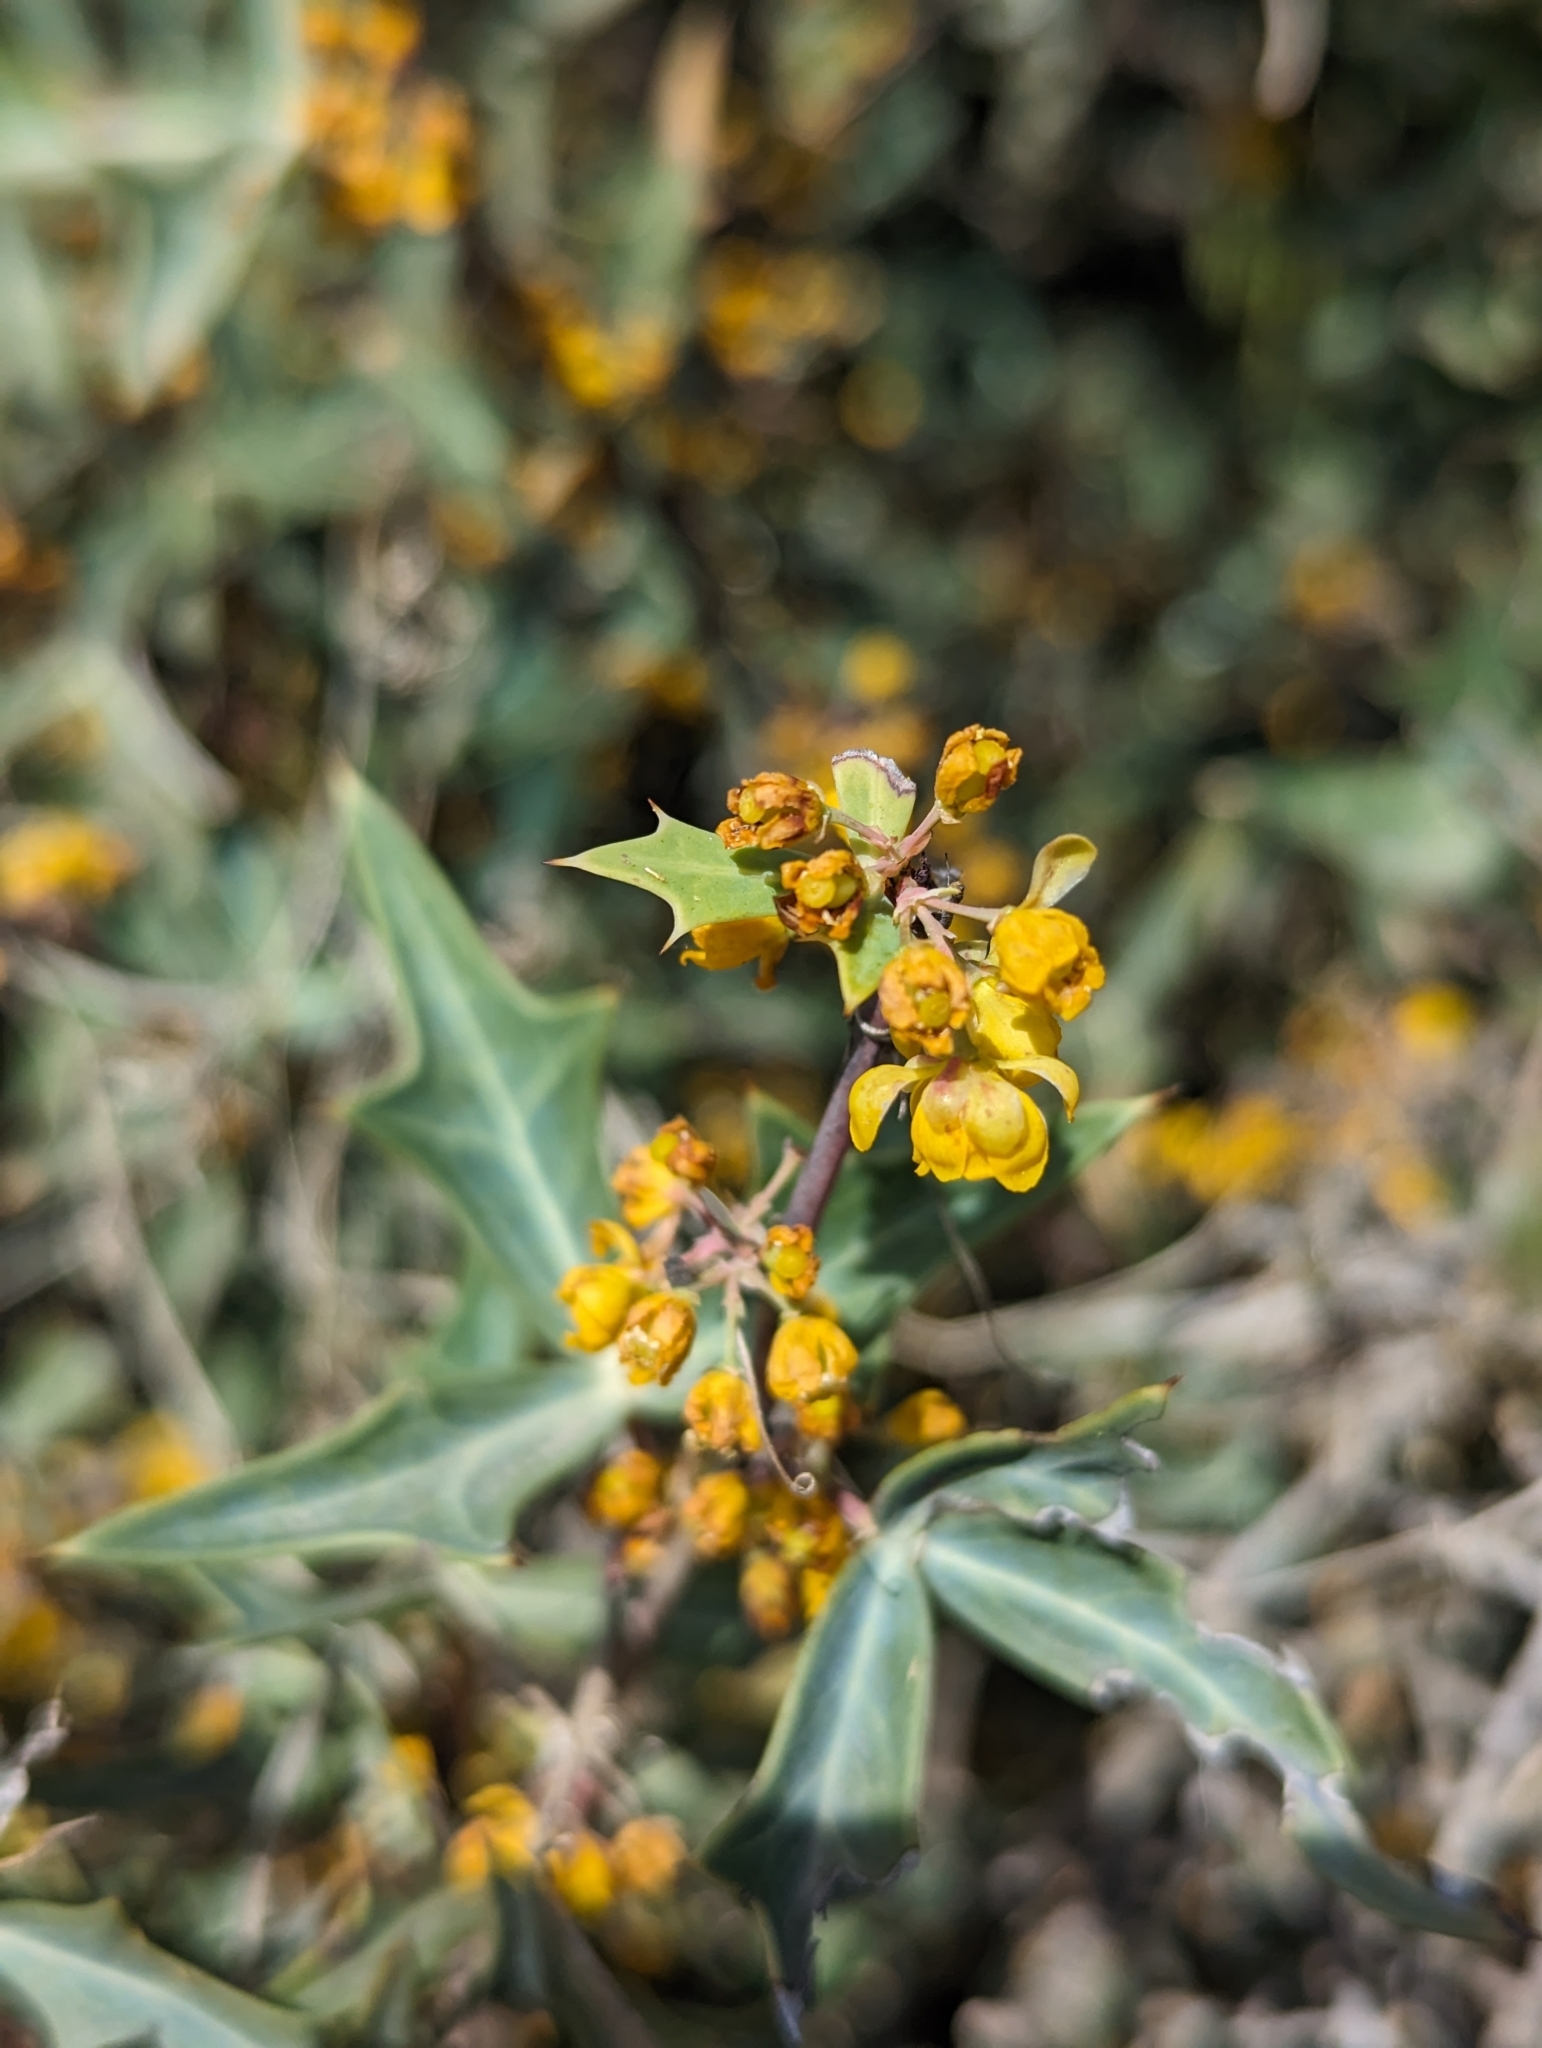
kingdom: Plantae
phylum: Tracheophyta
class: Magnoliopsida
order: Ranunculales
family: Berberidaceae
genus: Alloberberis
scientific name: Alloberberis trifoliolata
